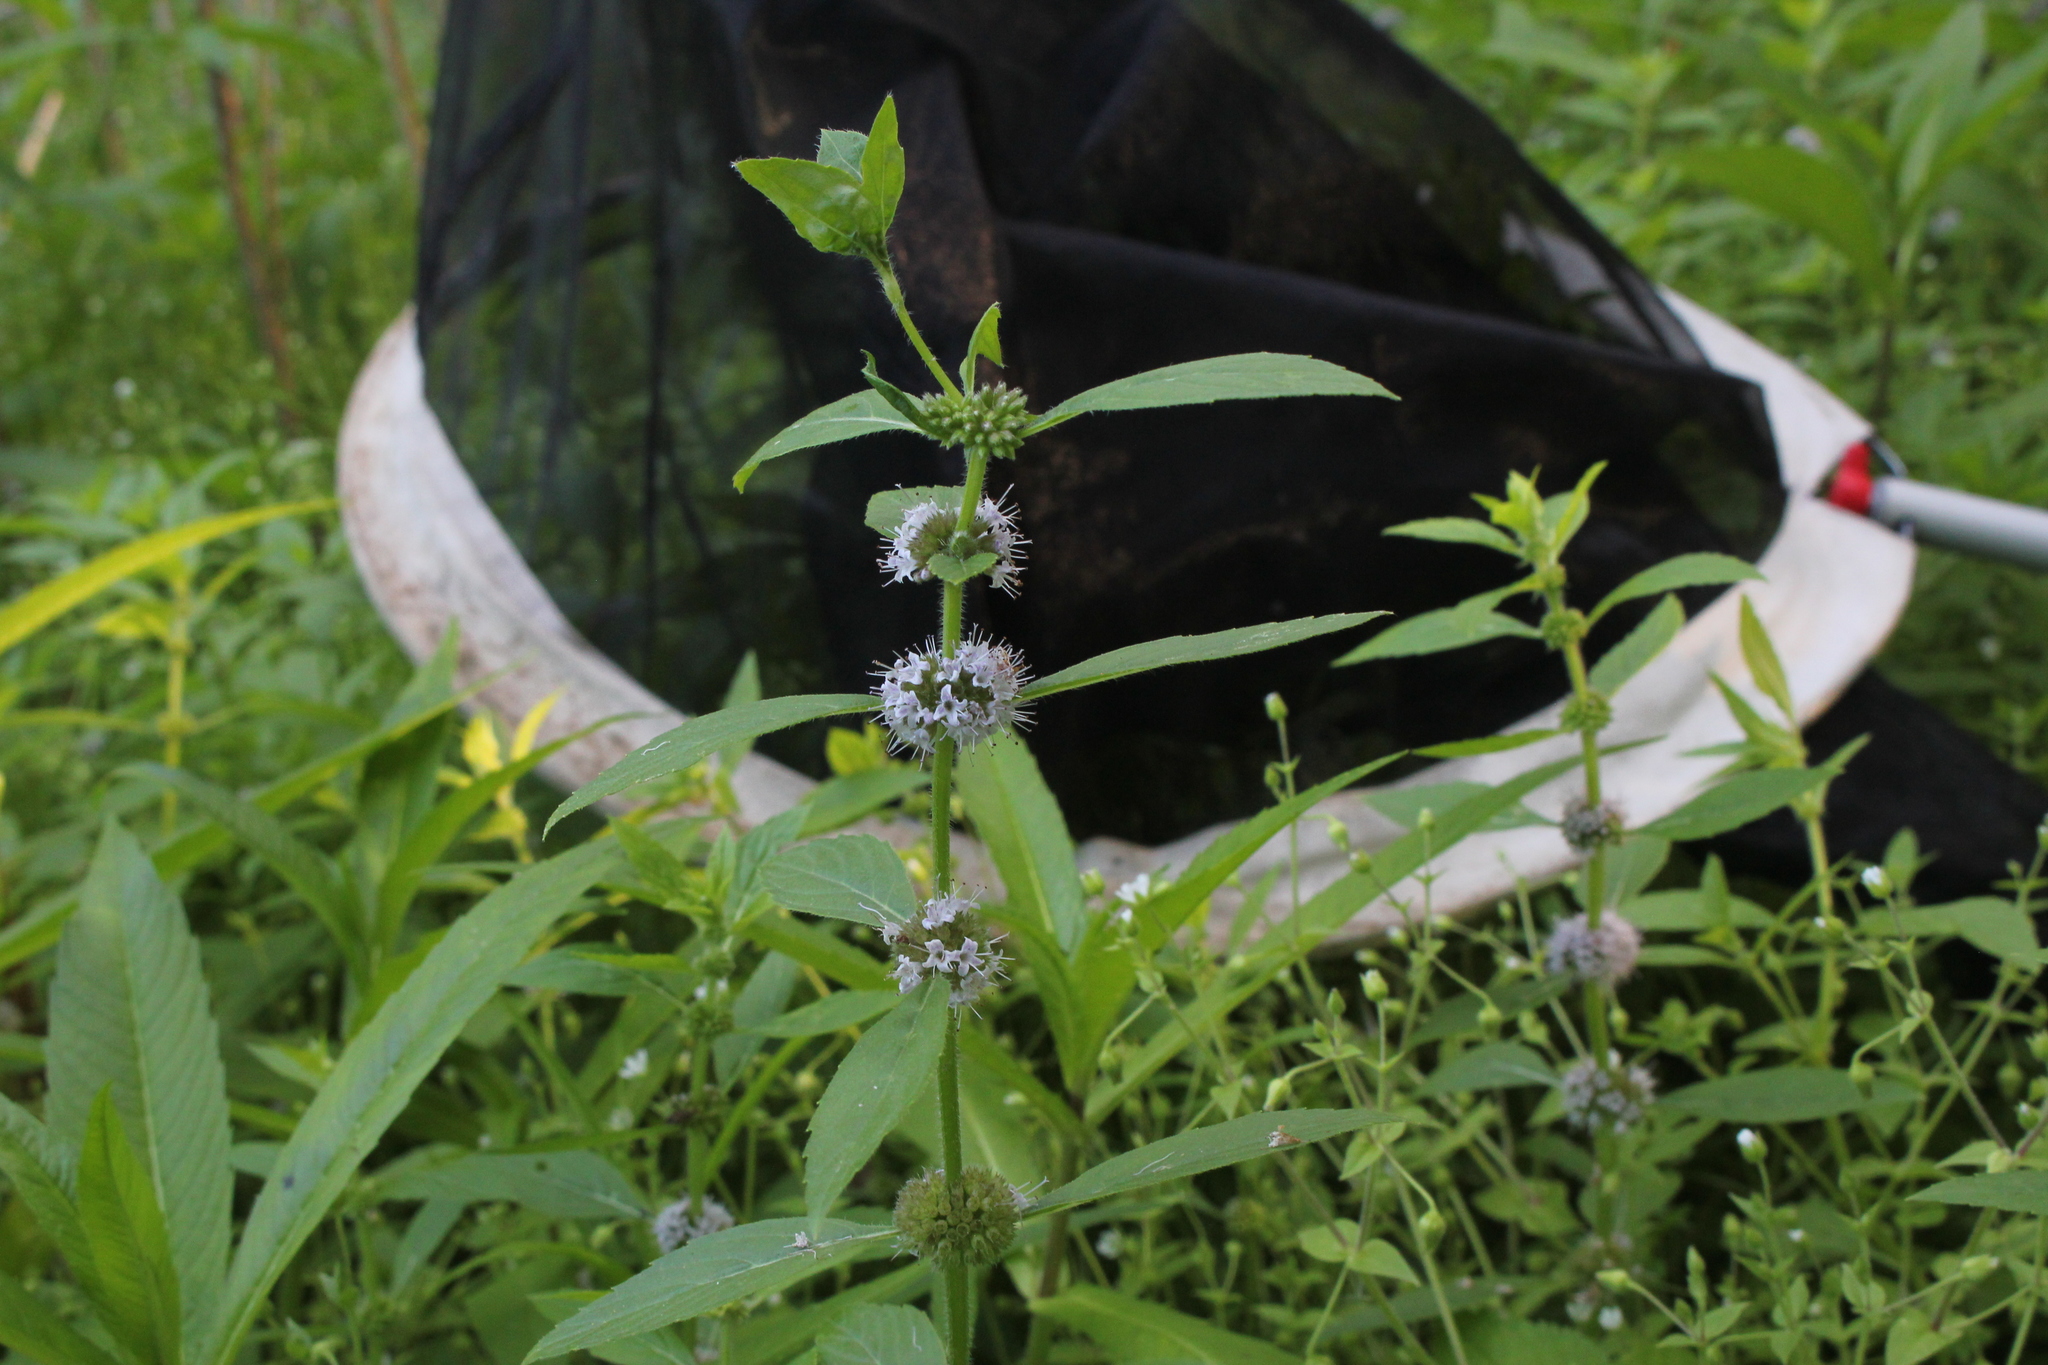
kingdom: Plantae
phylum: Tracheophyta
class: Magnoliopsida
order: Lamiales
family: Lamiaceae
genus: Mentha
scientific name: Mentha canadensis
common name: American corn mint
